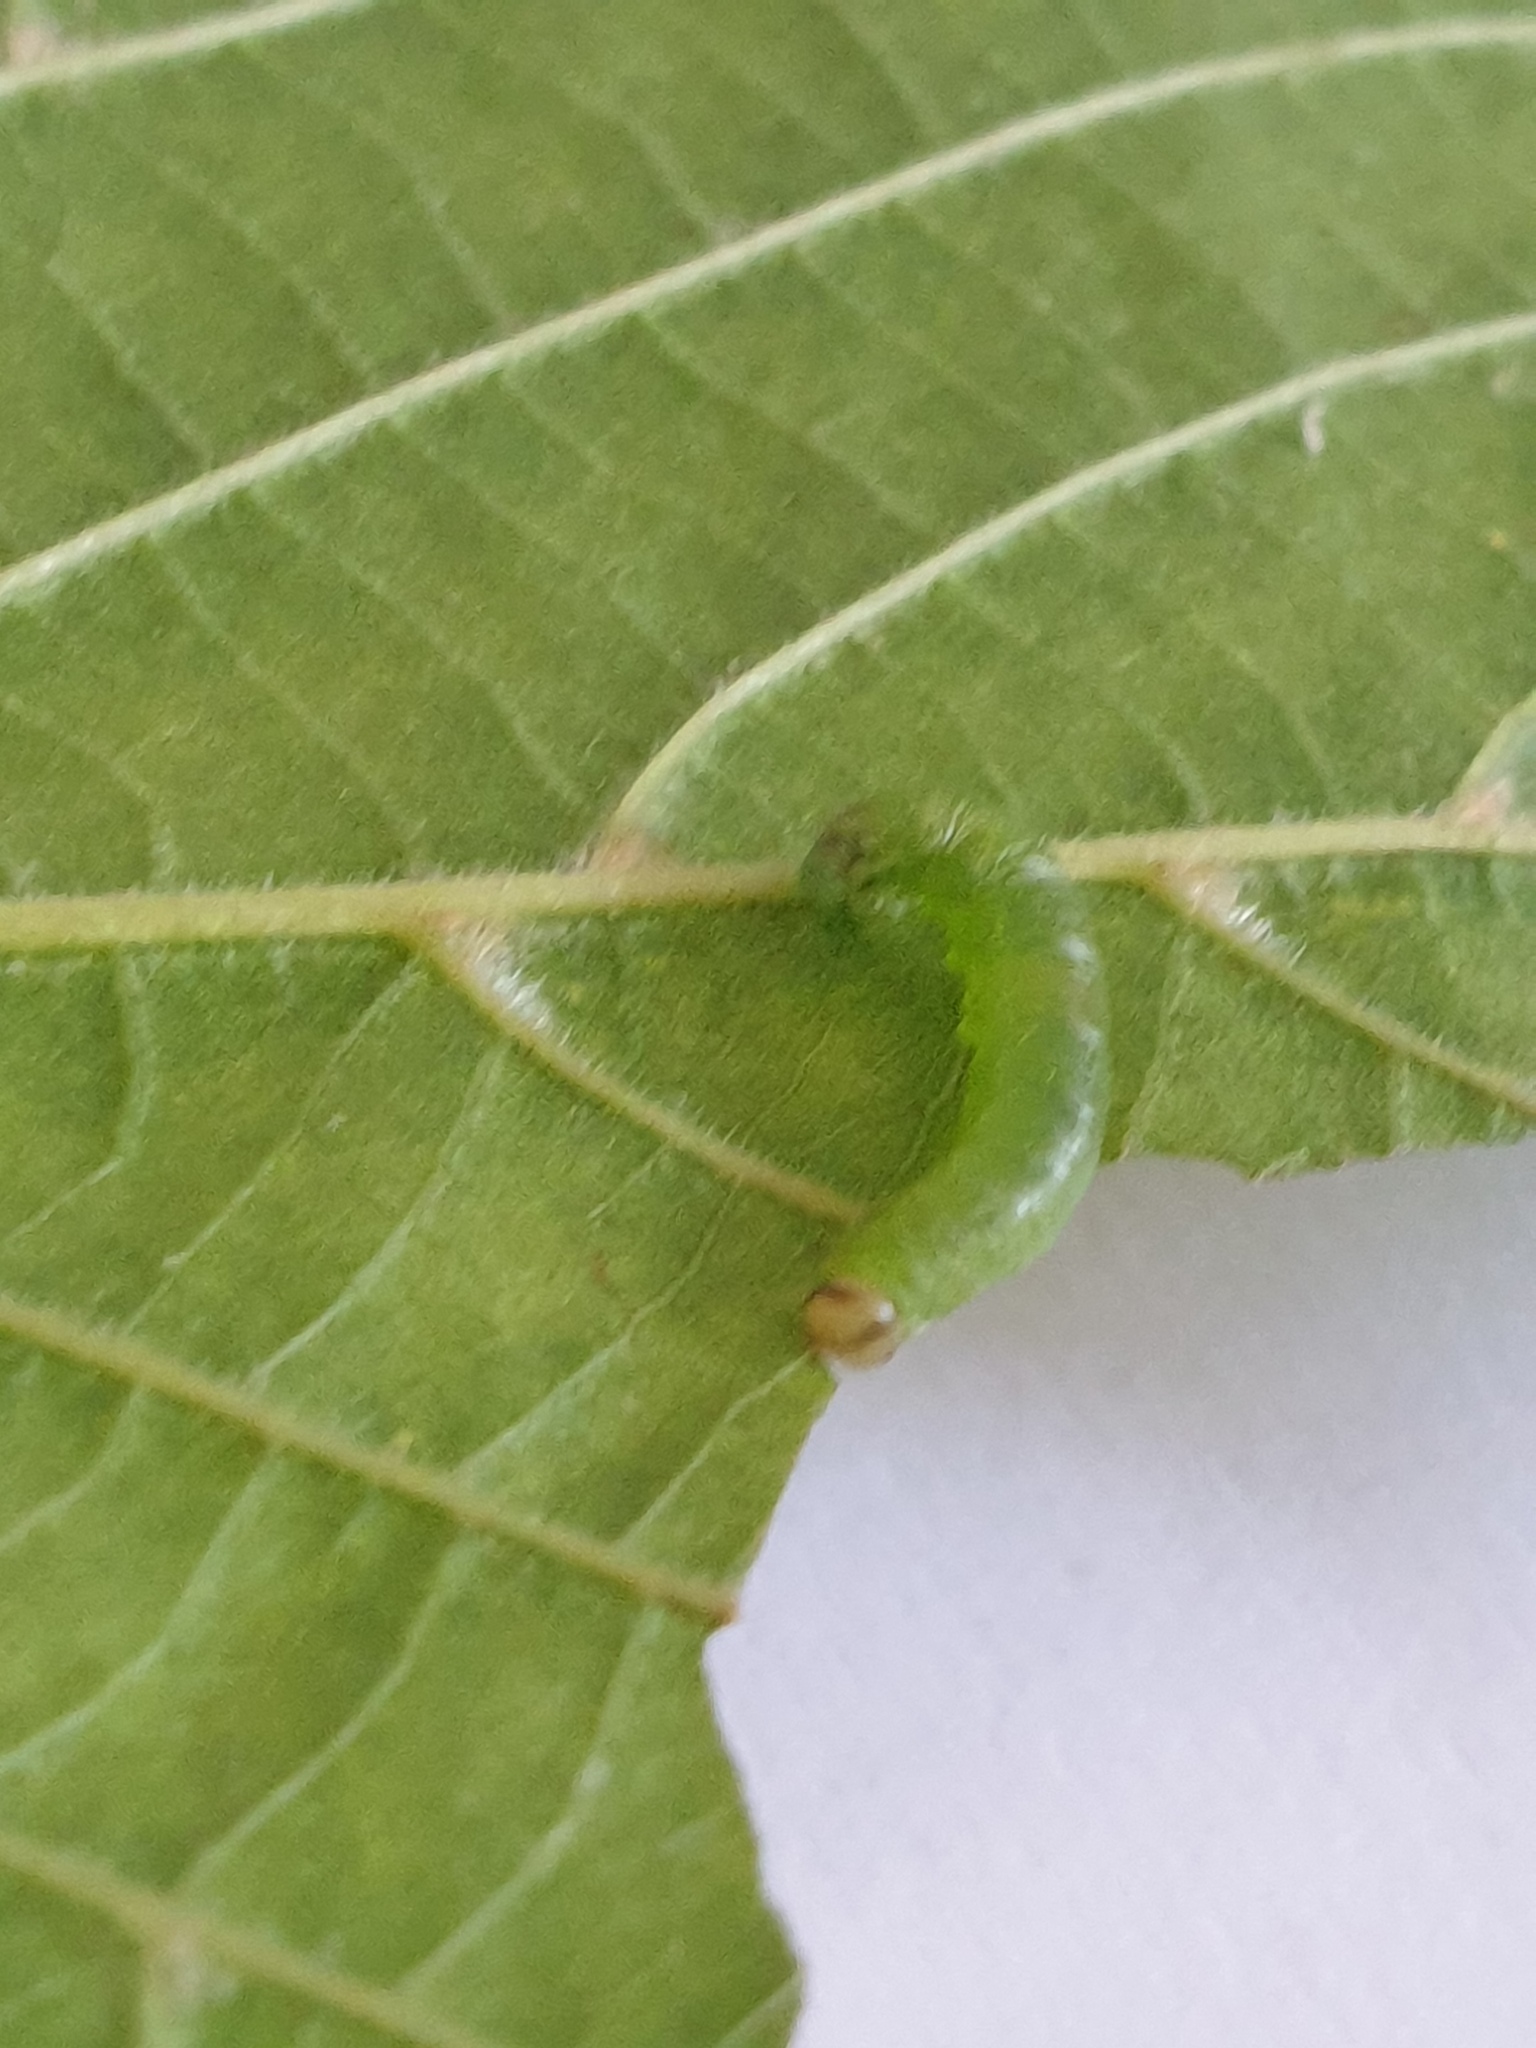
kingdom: Animalia
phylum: Arthropoda
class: Insecta
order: Hymenoptera
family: Tenthredinidae
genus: Pristiphora
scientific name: Pristiphora leucopus
